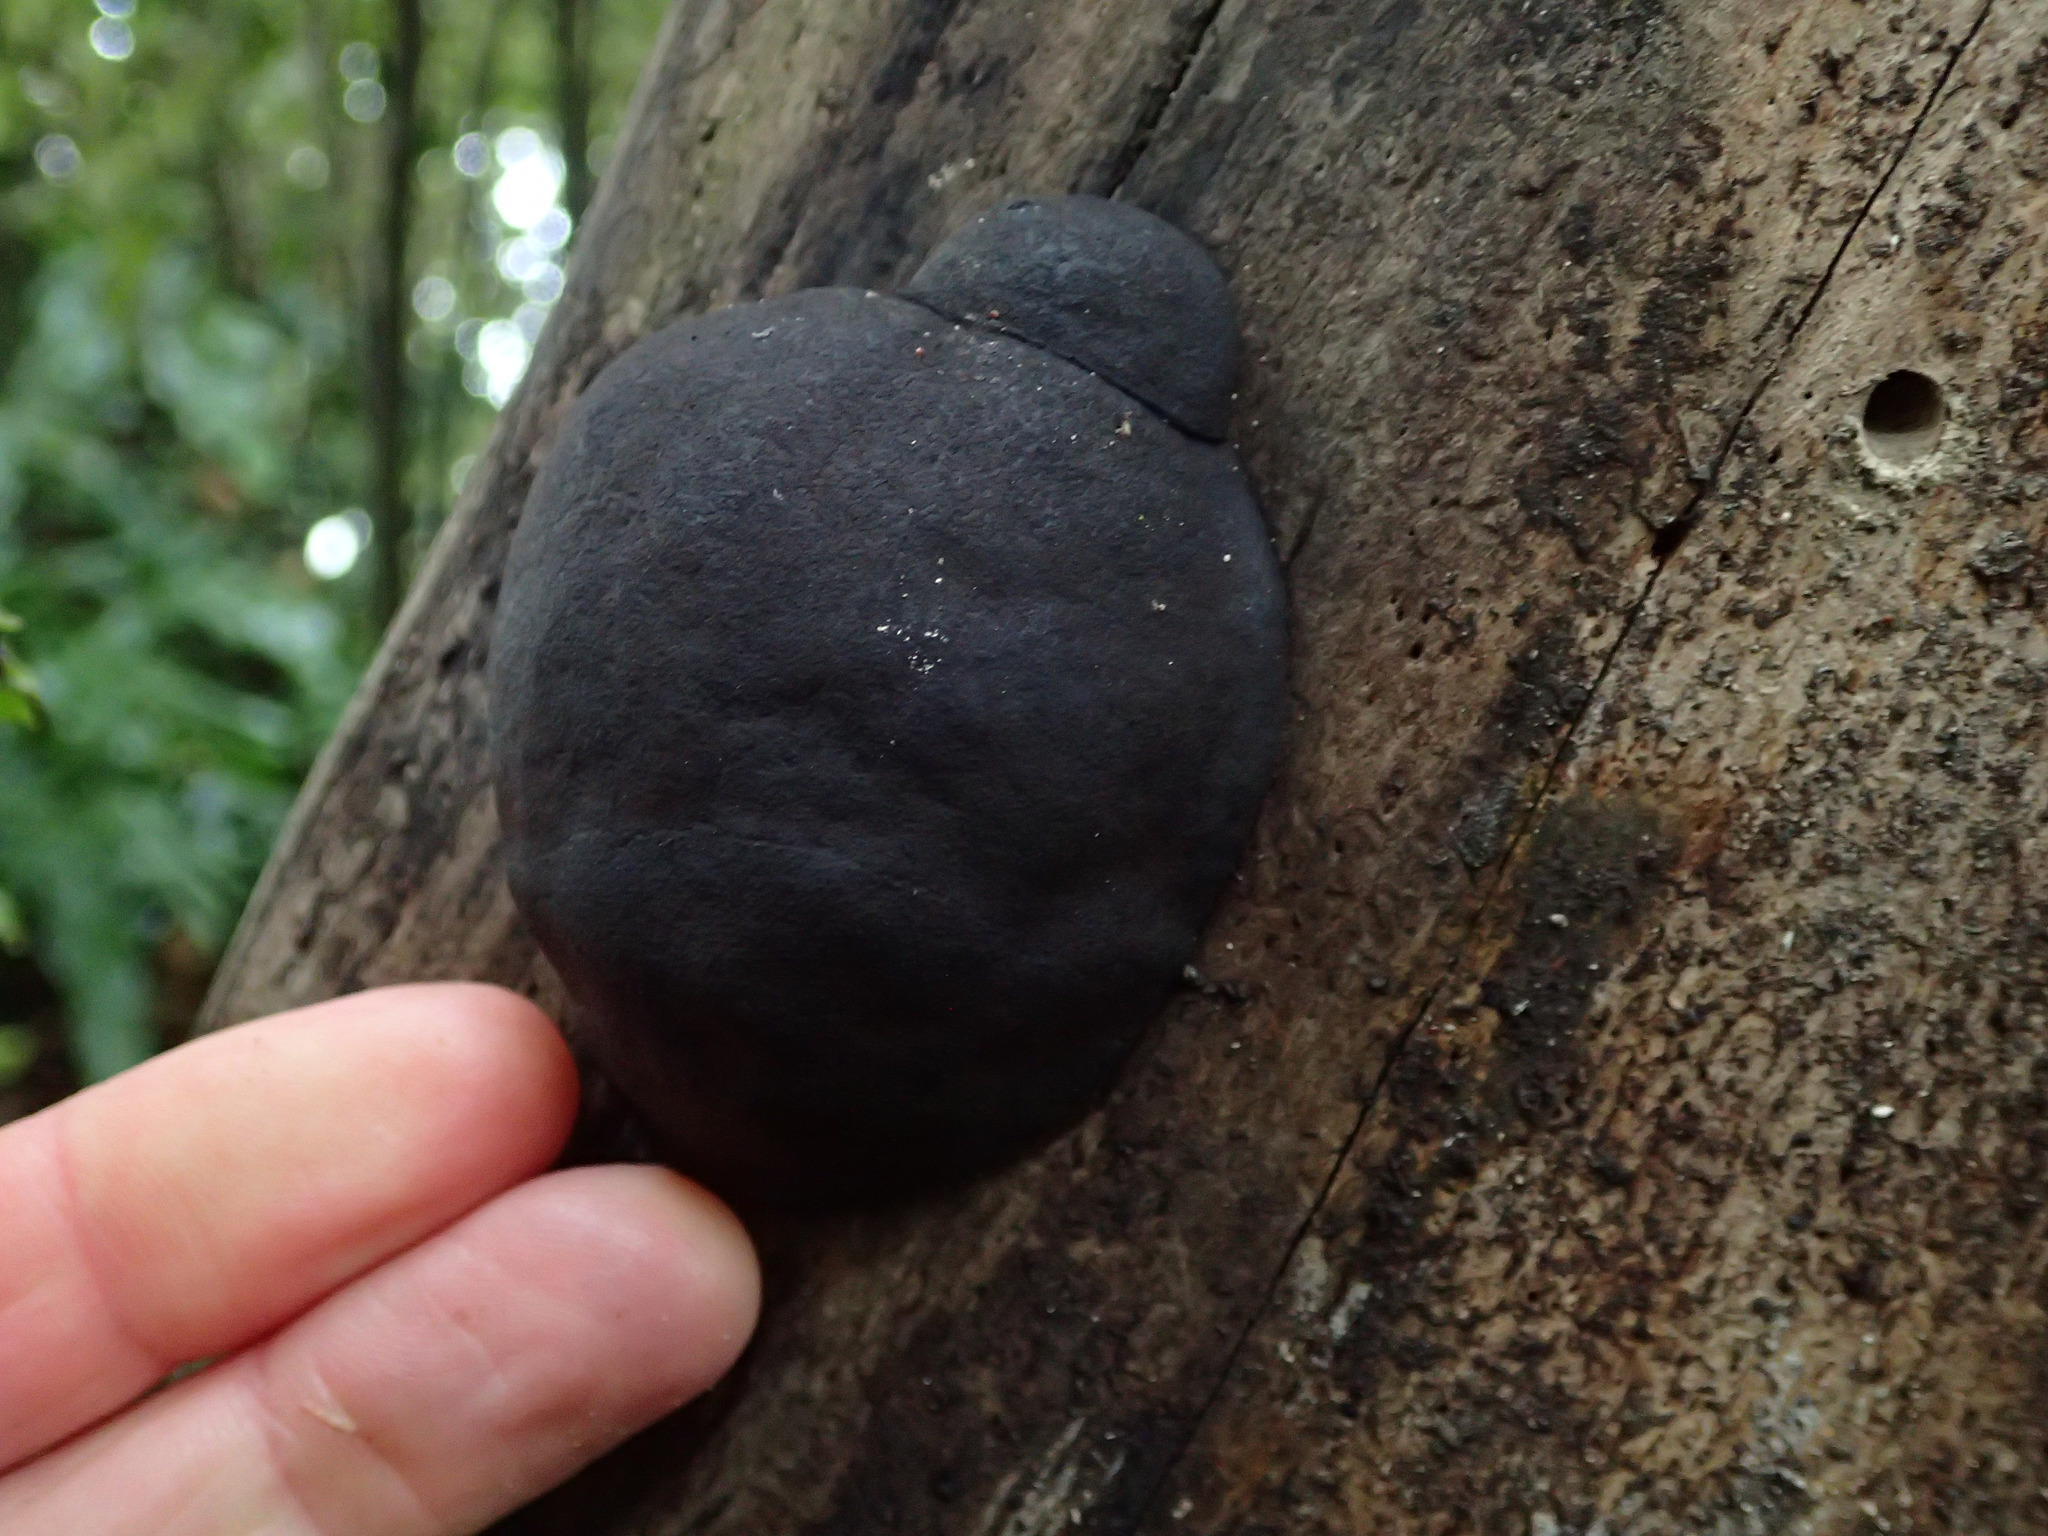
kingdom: Fungi
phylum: Ascomycota
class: Sordariomycetes
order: Xylariales
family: Hypoxylaceae
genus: Daldinia
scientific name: Daldinia
